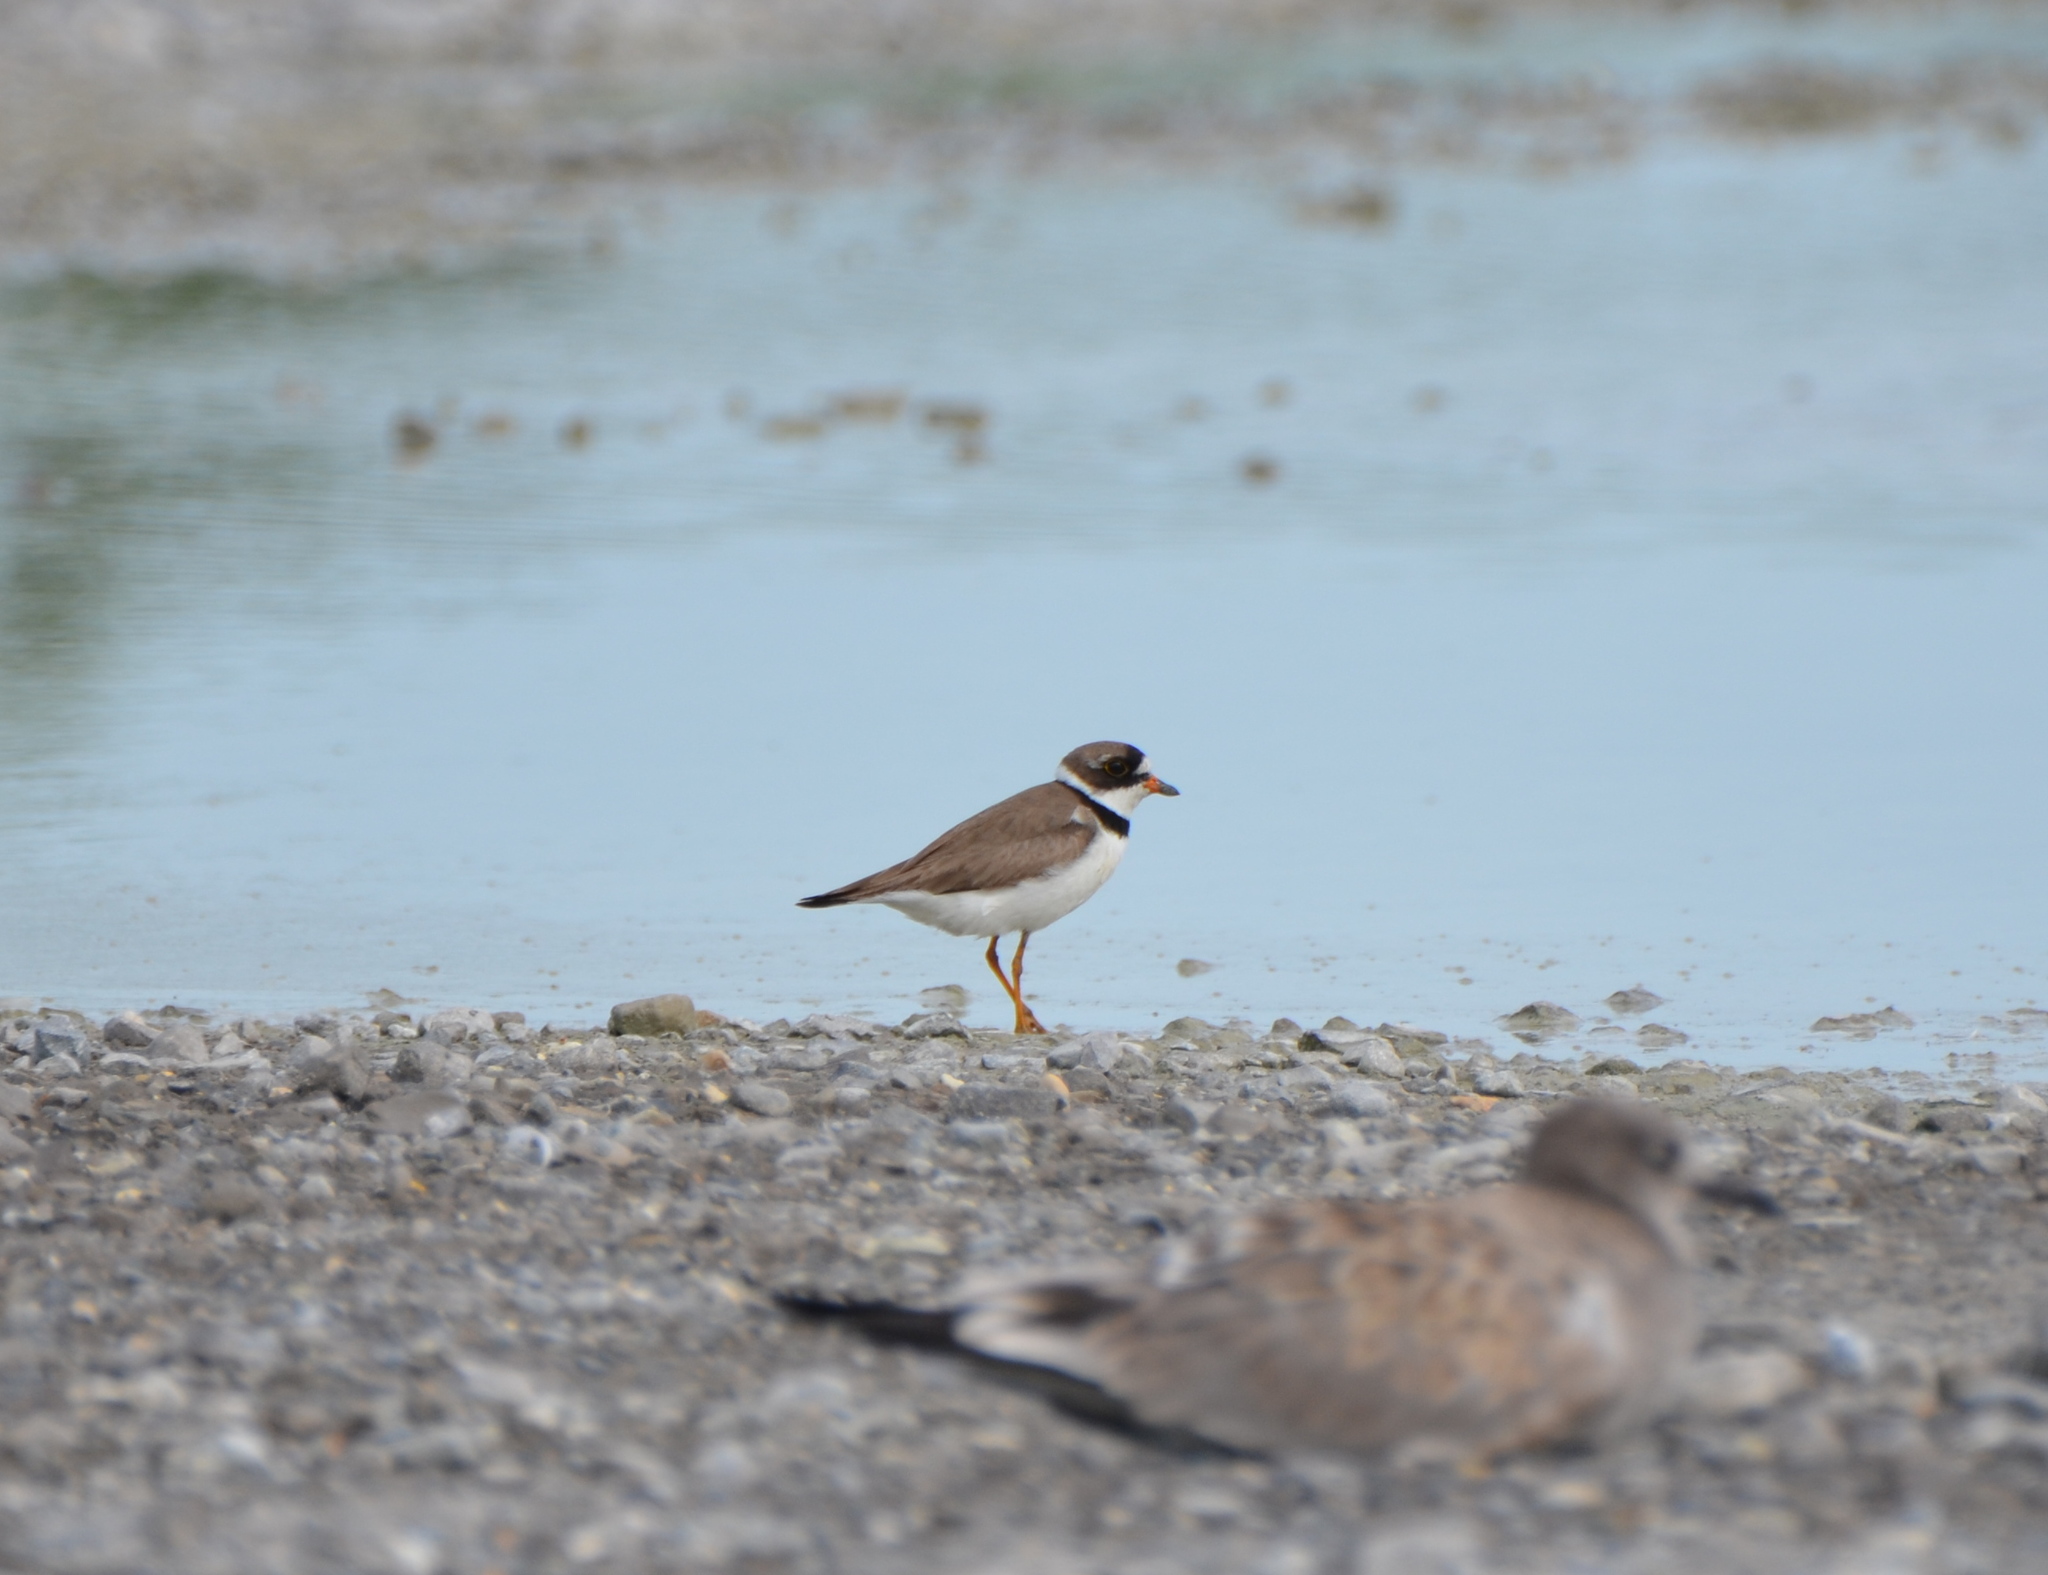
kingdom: Animalia
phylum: Chordata
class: Aves
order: Charadriiformes
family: Charadriidae
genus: Charadrius
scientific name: Charadrius semipalmatus
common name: Semipalmated plover
